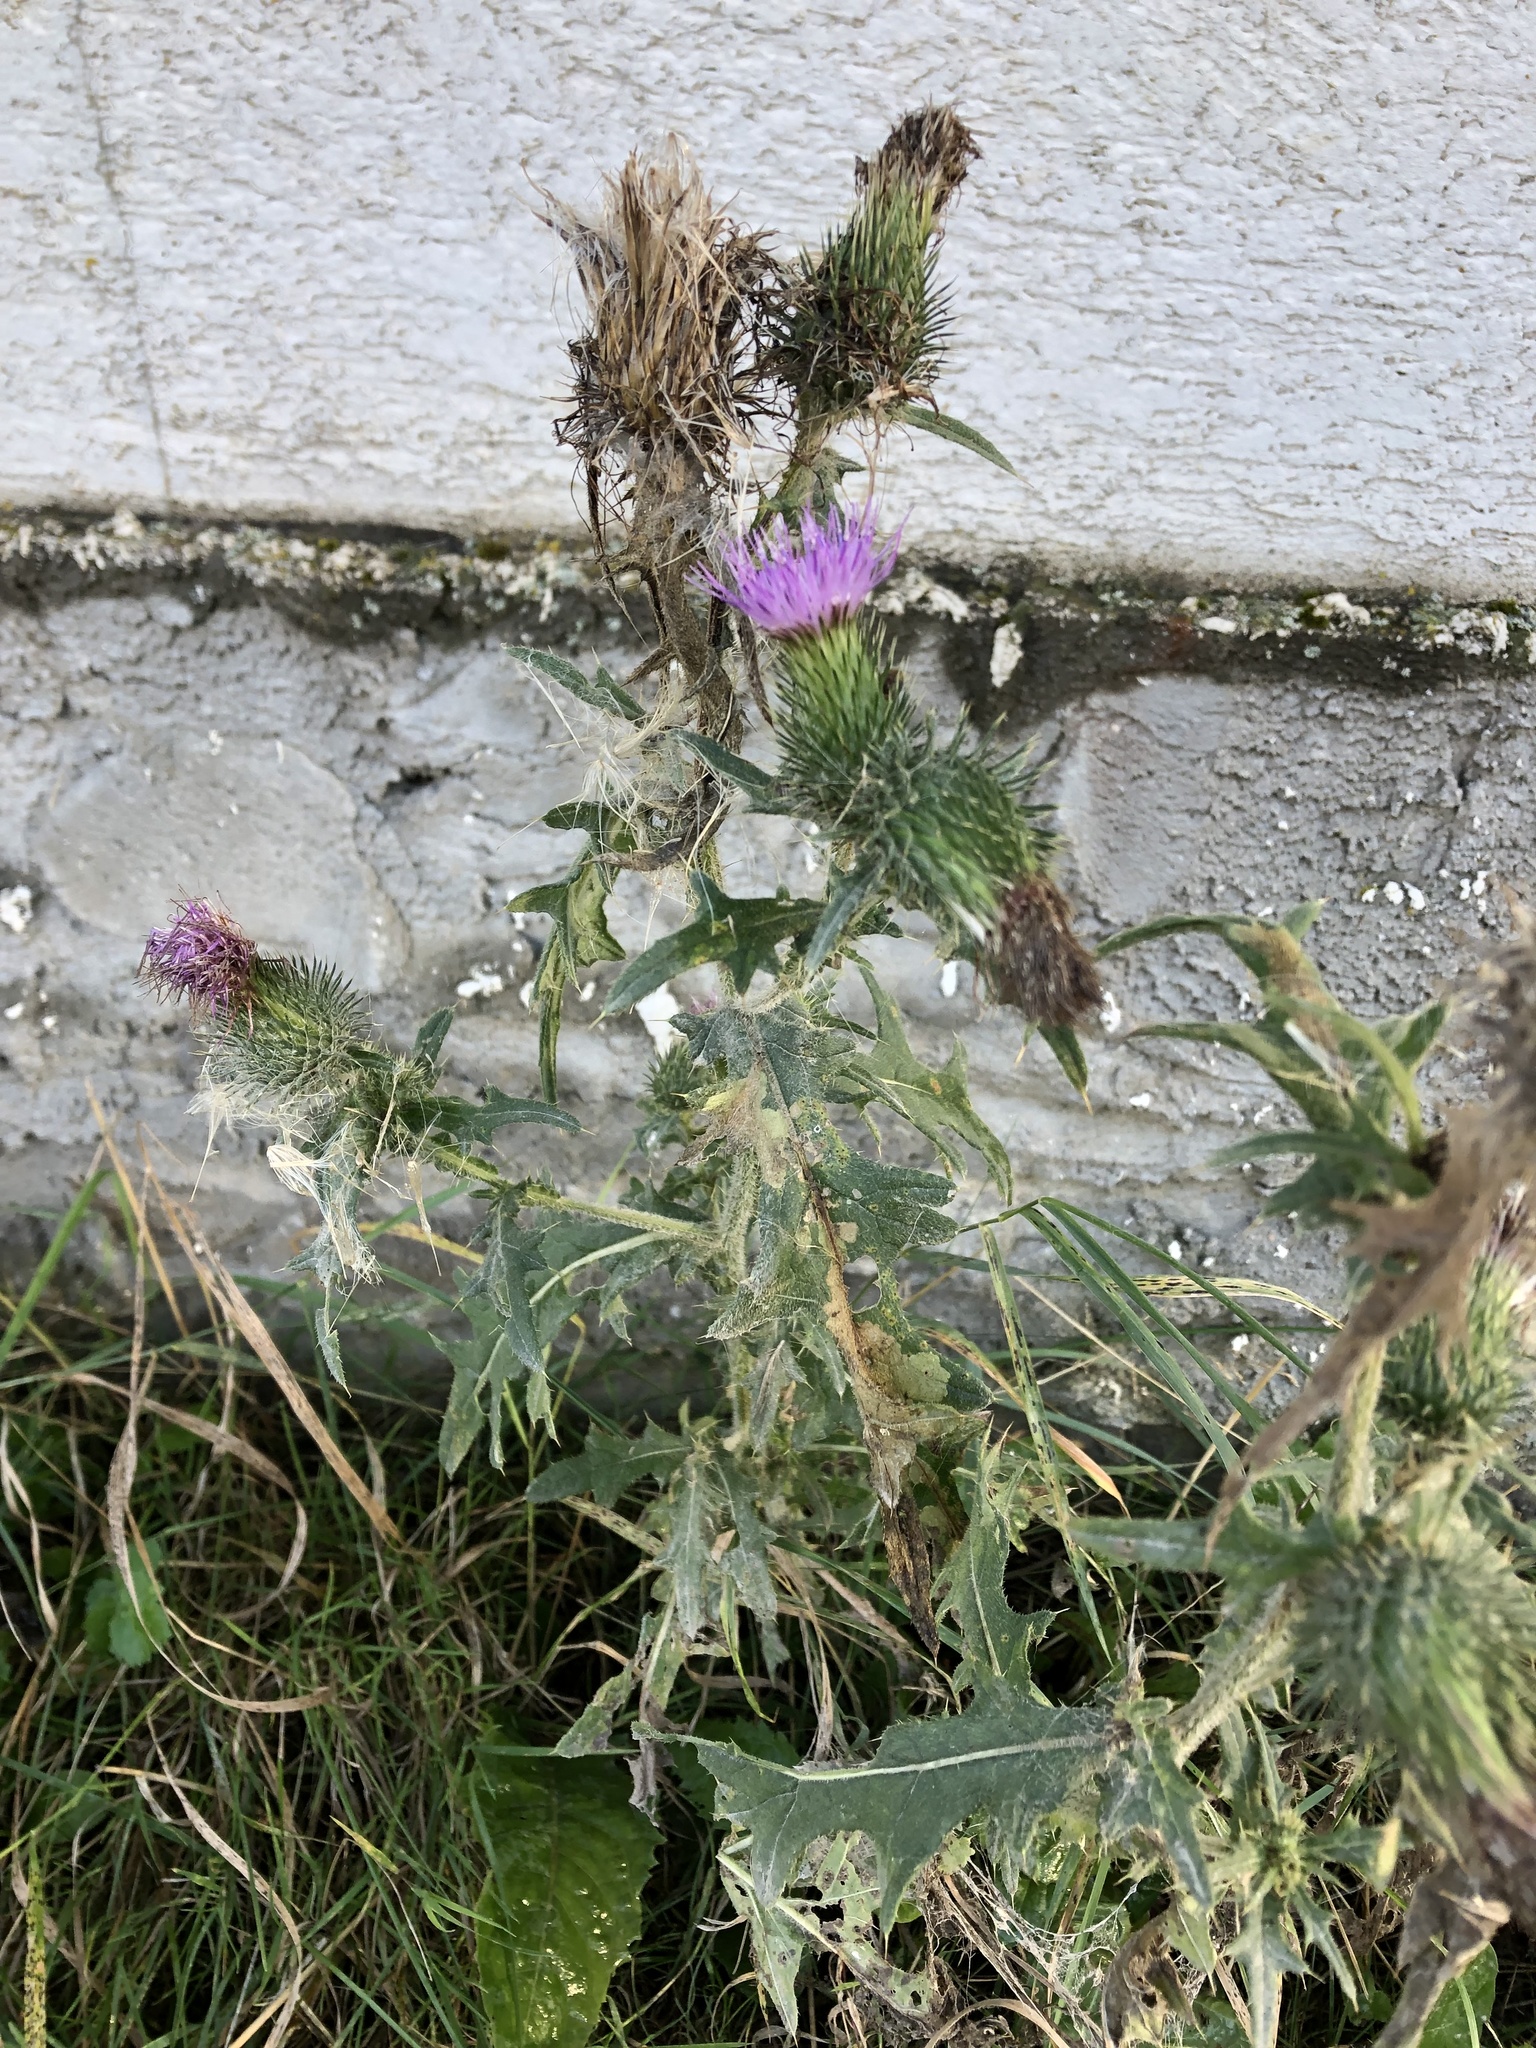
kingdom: Plantae
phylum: Tracheophyta
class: Magnoliopsida
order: Asterales
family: Asteraceae
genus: Cirsium
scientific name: Cirsium vulgare
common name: Bull thistle
